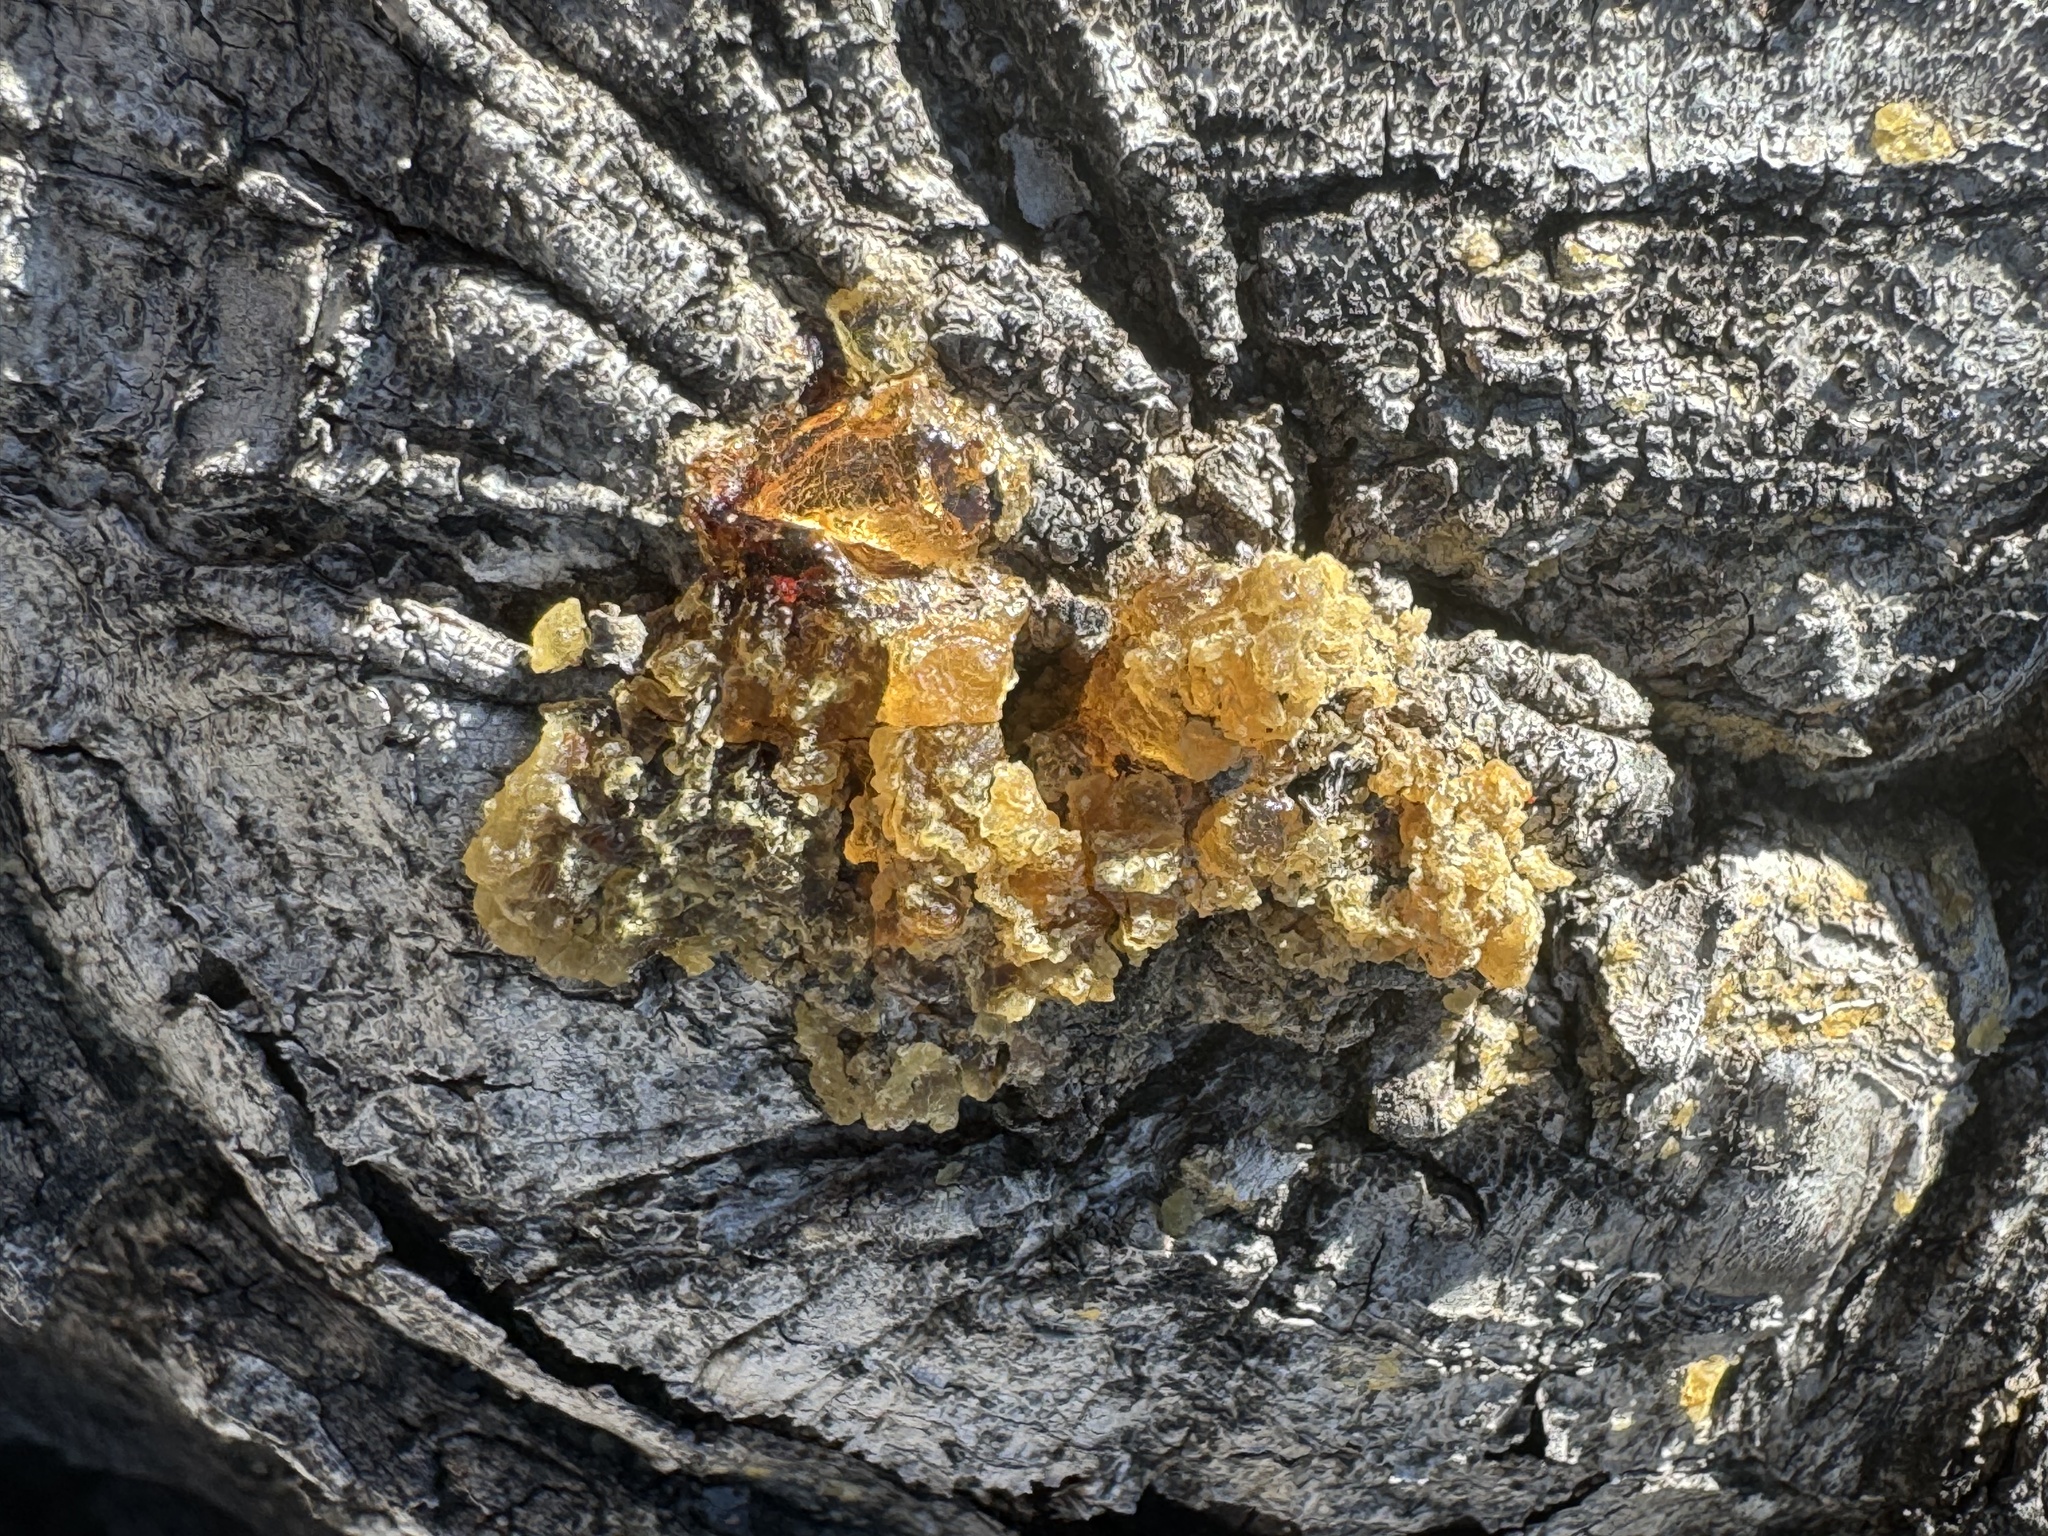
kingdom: Fungi
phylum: Basidiomycota
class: Tremellomycetes
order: Tremellales
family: Naemateliaceae
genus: Naematelia
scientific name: Naematelia aurantia
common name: Golden ear
